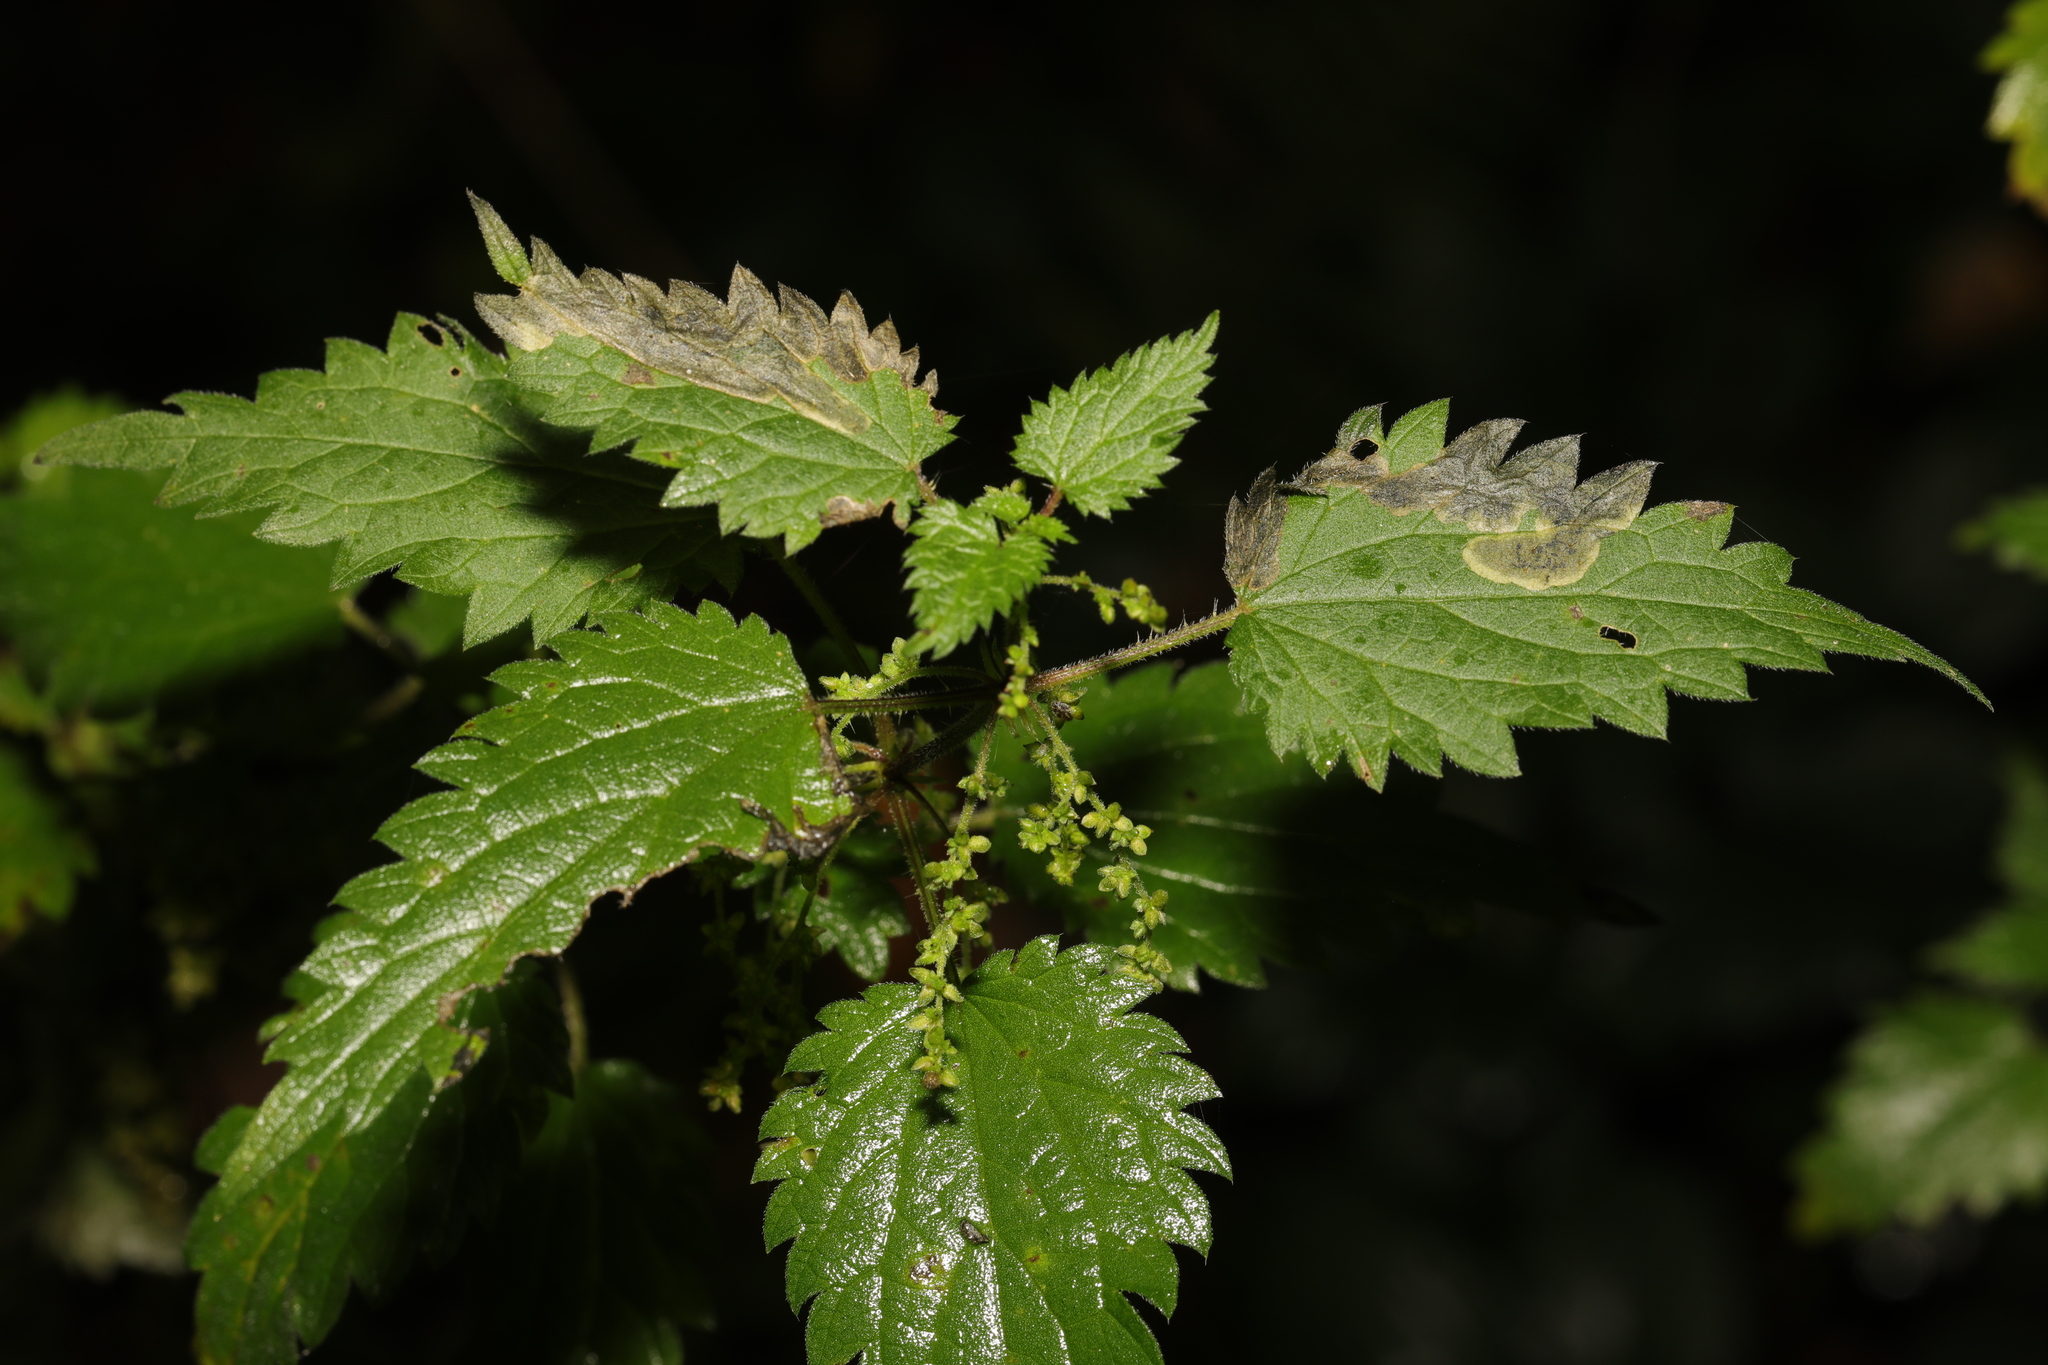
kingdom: Plantae
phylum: Tracheophyta
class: Magnoliopsida
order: Rosales
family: Urticaceae
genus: Urtica
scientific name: Urtica dioica
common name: Common nettle
